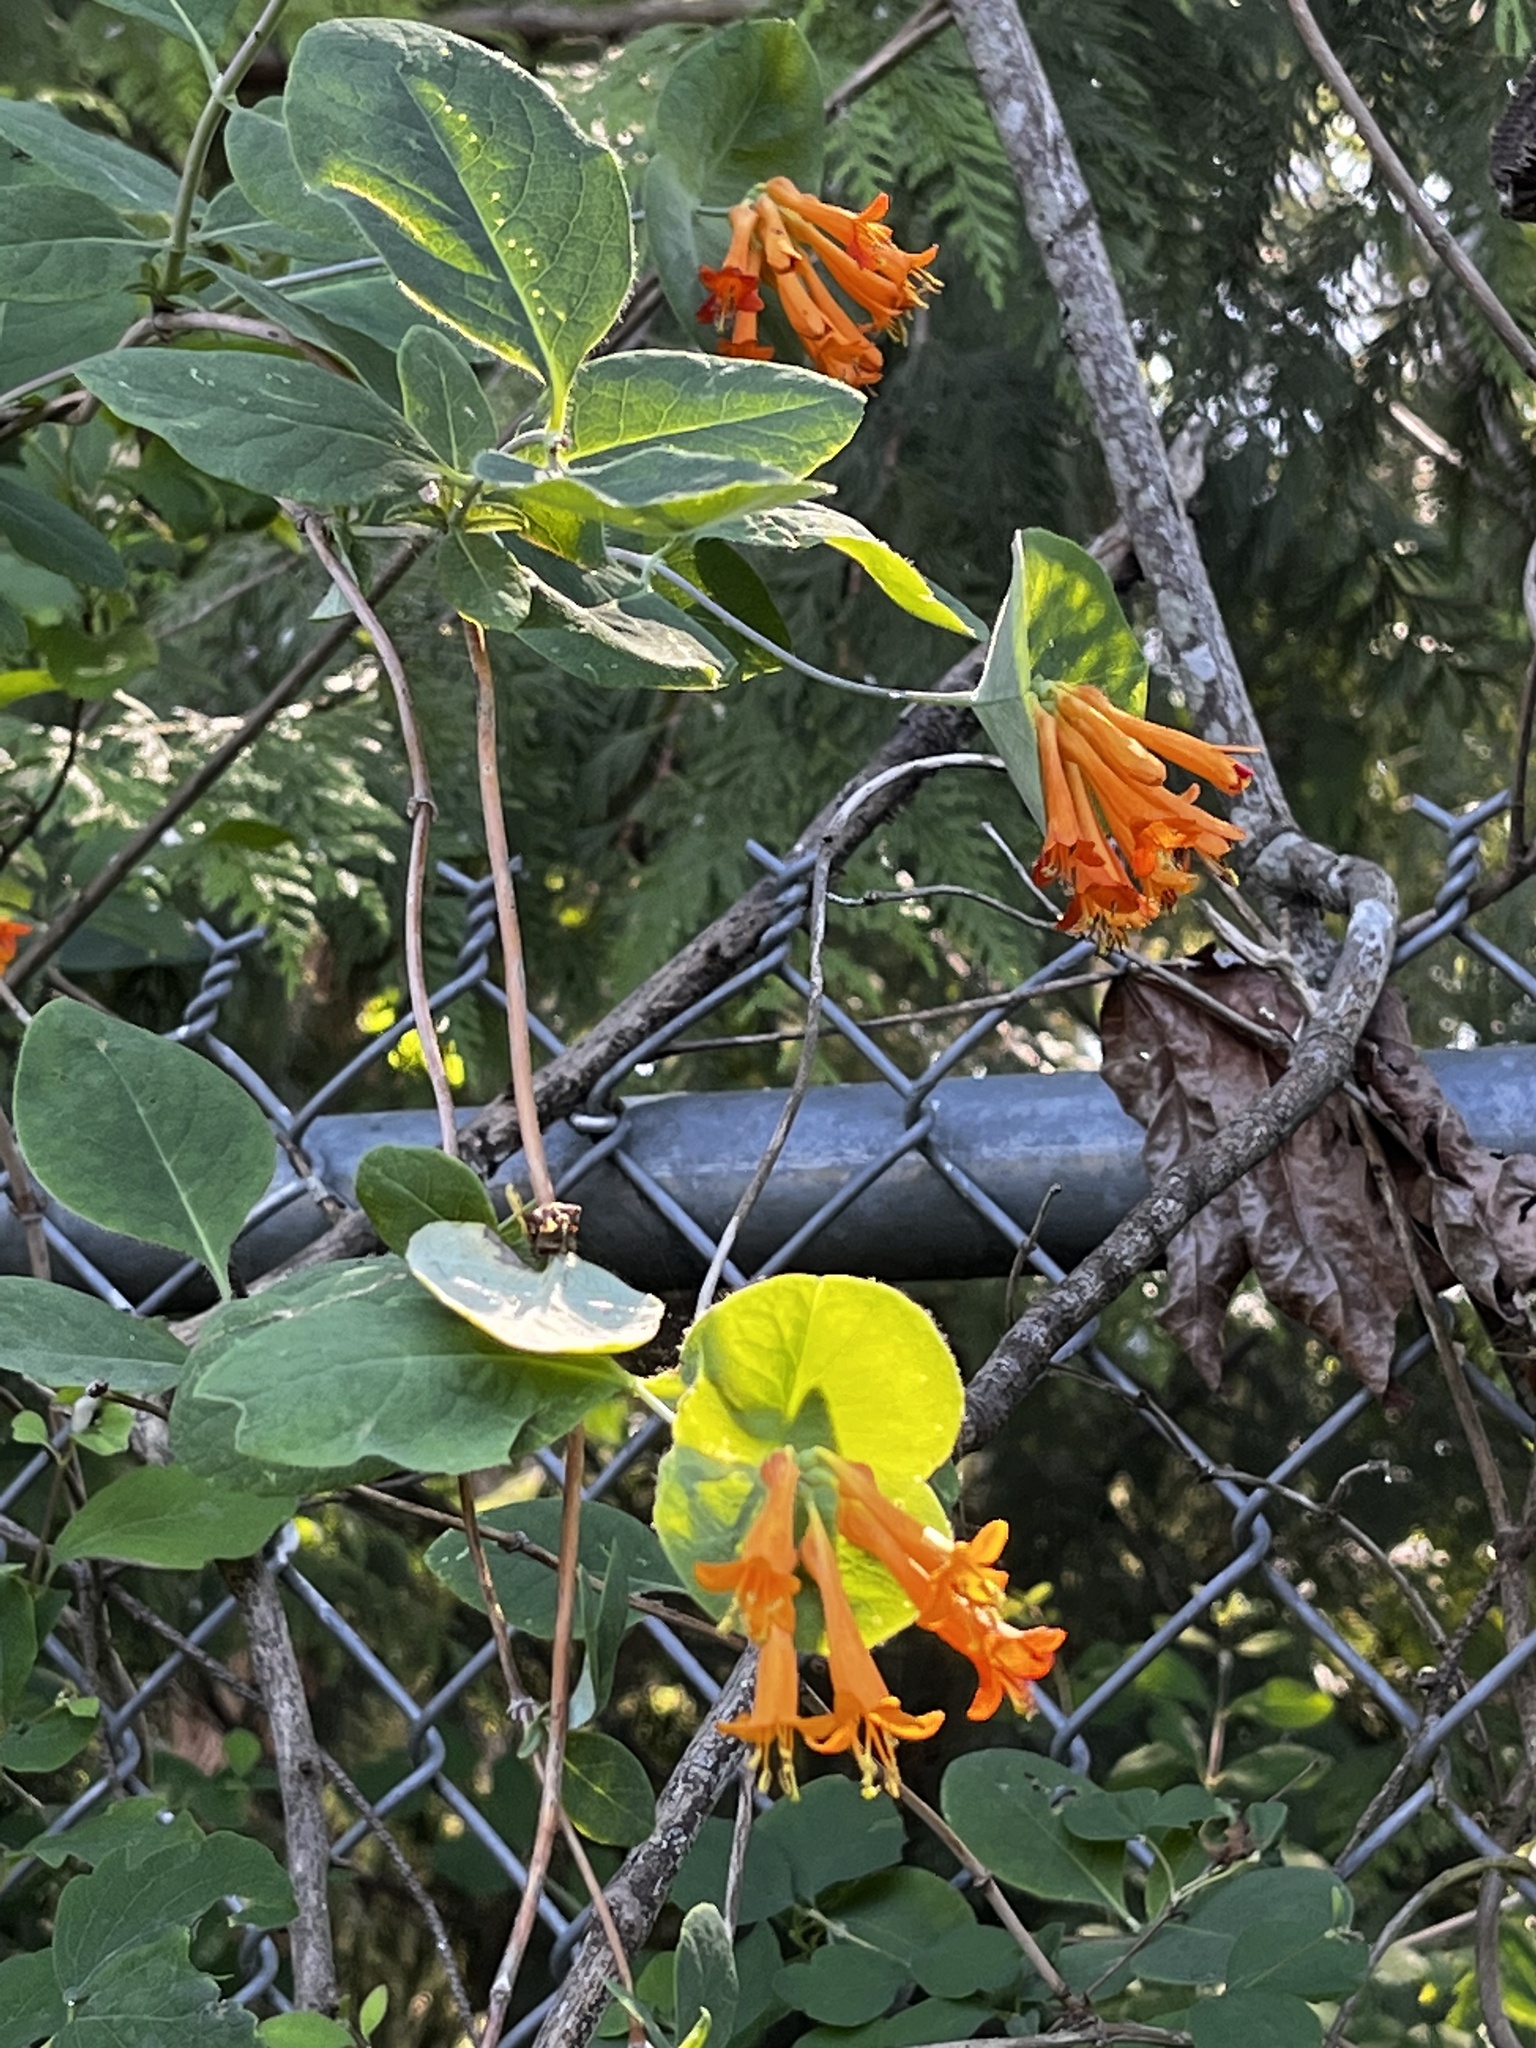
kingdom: Plantae
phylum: Tracheophyta
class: Magnoliopsida
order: Dipsacales
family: Caprifoliaceae
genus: Lonicera
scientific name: Lonicera ciliosa
